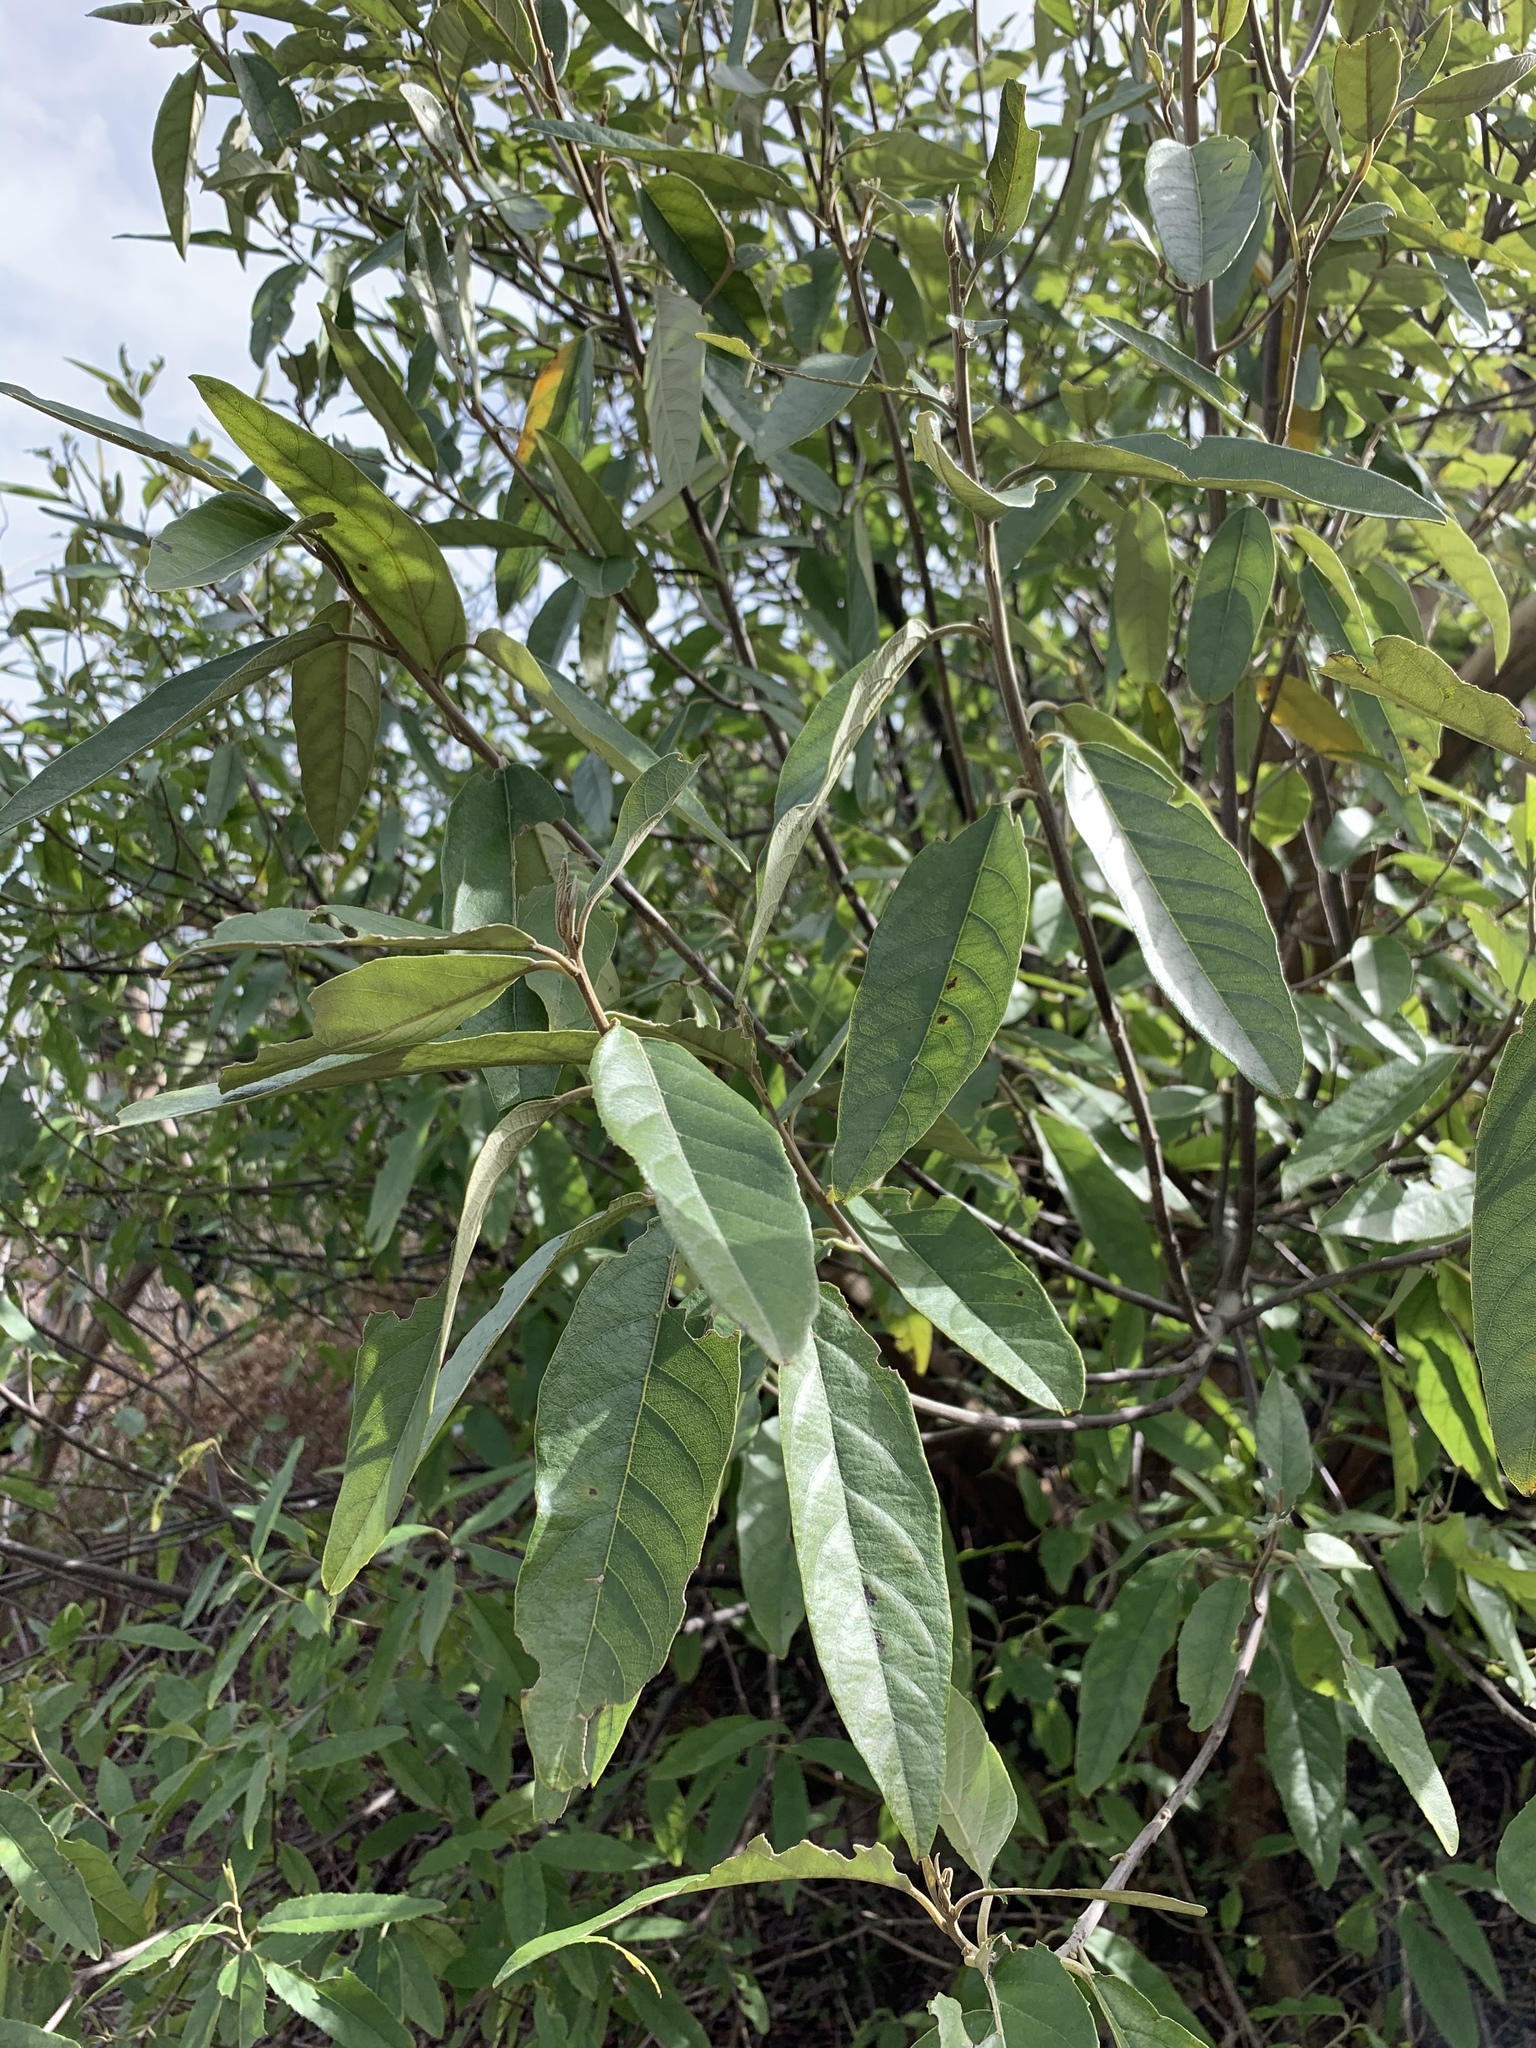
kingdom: Plantae
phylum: Tracheophyta
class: Magnoliopsida
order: Malpighiales
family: Achariaceae
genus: Kiggelaria
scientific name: Kiggelaria africana
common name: Wild peach
